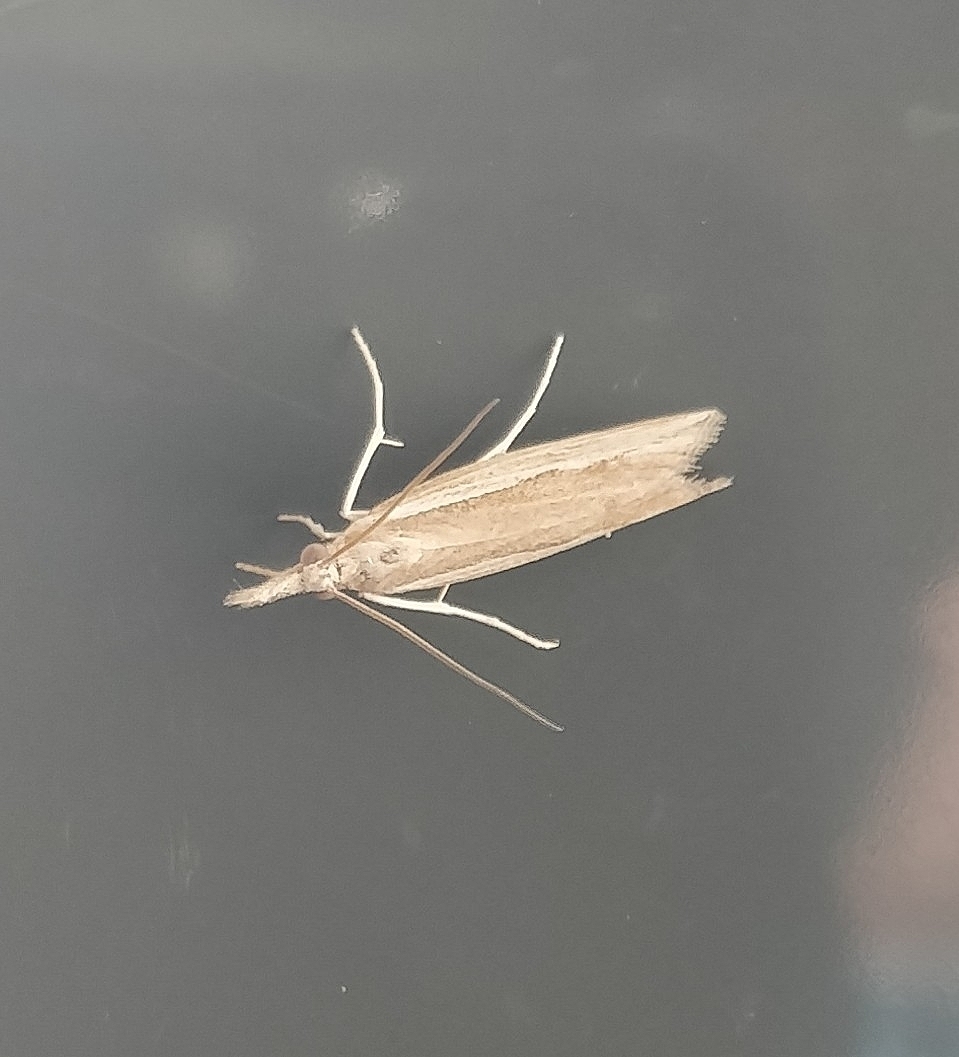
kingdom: Animalia
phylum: Arthropoda
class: Insecta
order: Lepidoptera
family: Crambidae
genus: Agriphila
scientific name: Agriphila atlanticus
